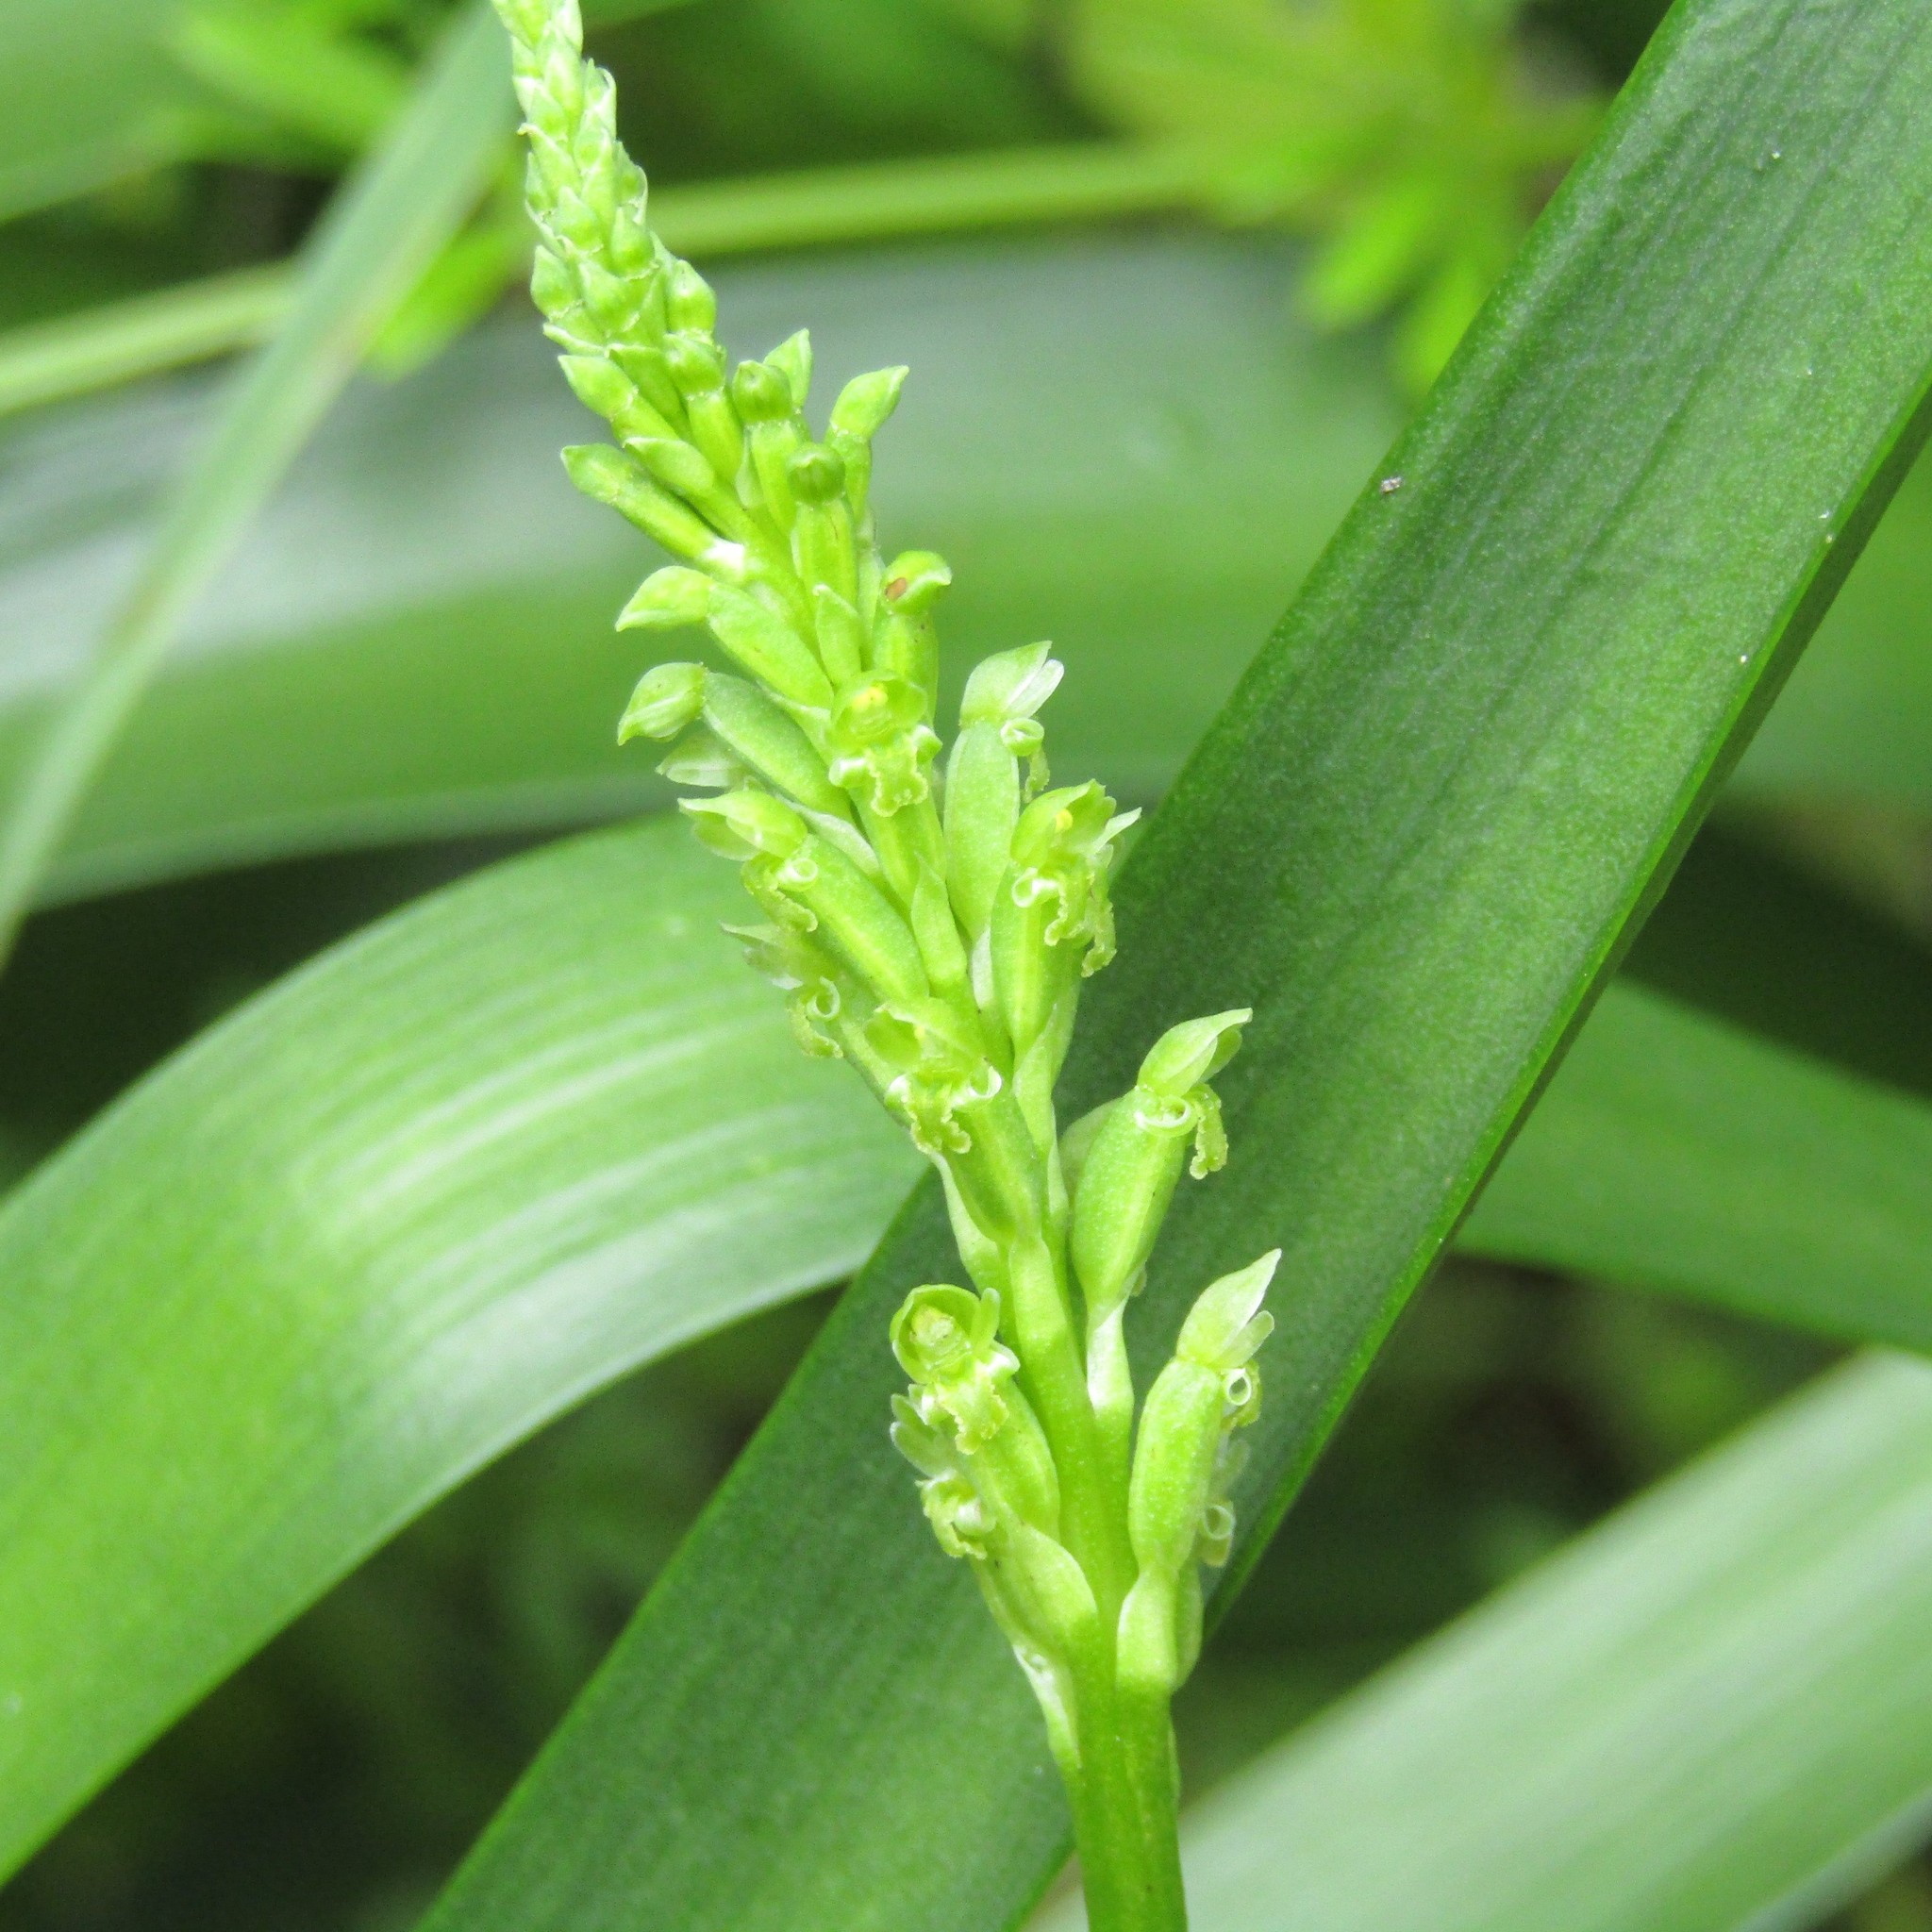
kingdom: Plantae
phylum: Tracheophyta
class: Liliopsida
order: Asparagales
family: Orchidaceae
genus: Microtis
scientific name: Microtis unifolia
